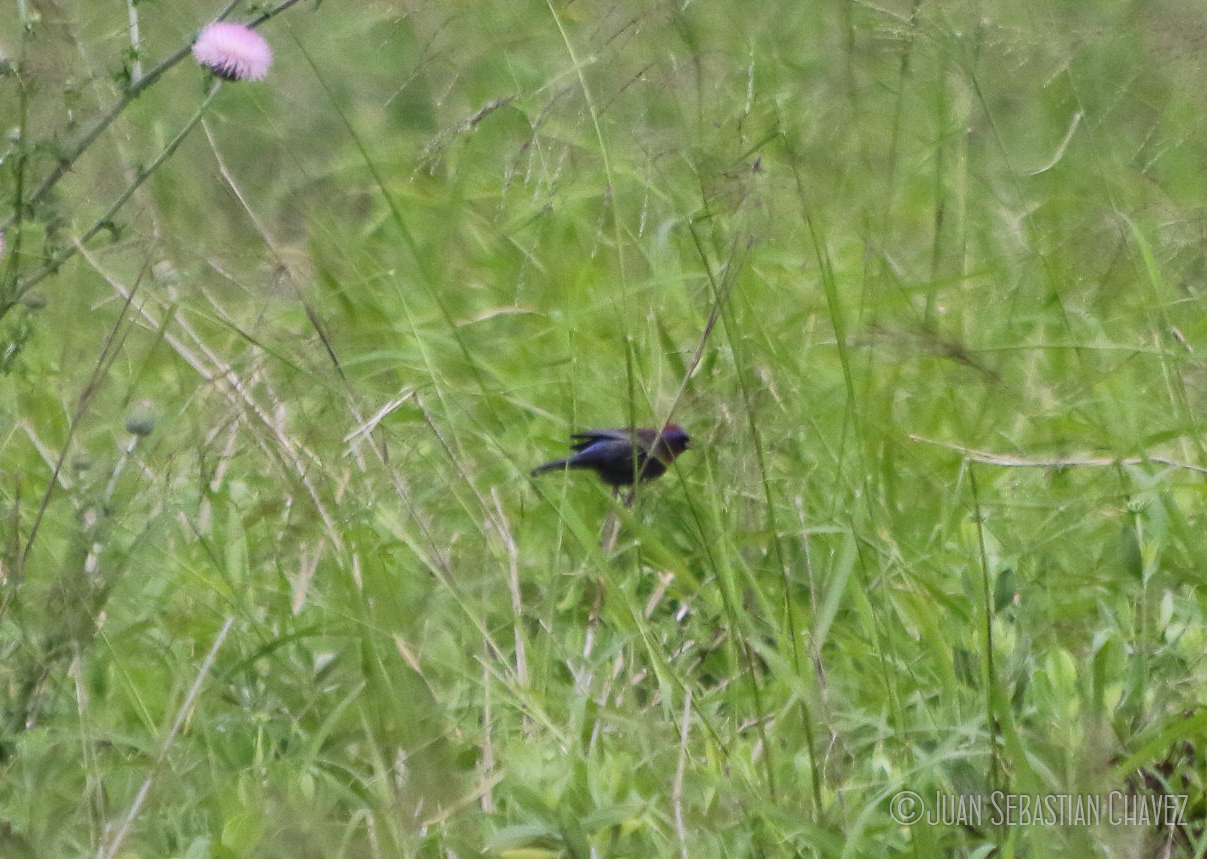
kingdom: Animalia
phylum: Chordata
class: Aves
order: Passeriformes
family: Cardinalidae
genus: Passerina
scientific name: Passerina versicolor
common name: Varied bunting
